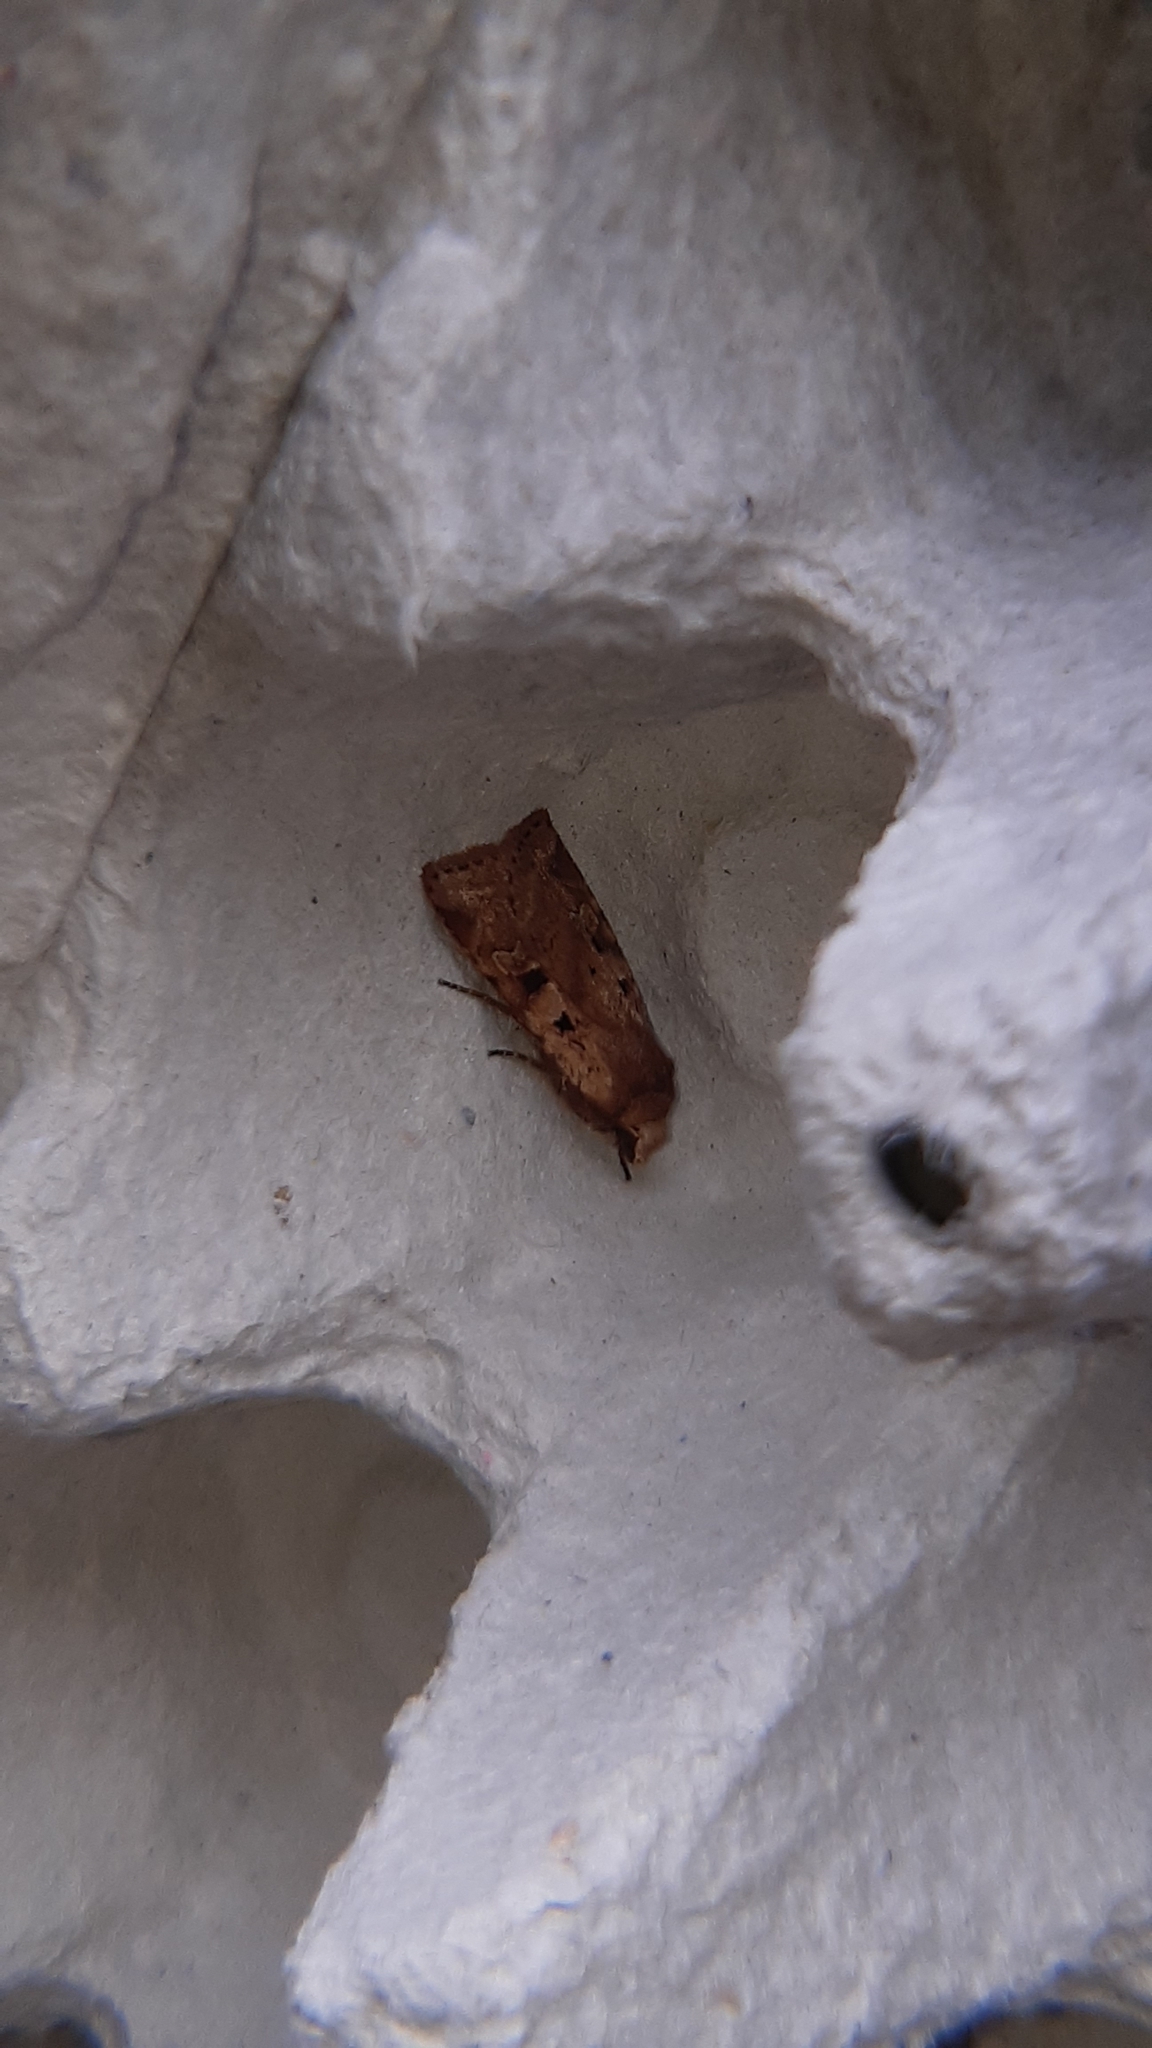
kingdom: Animalia
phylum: Arthropoda
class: Insecta
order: Lepidoptera
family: Noctuidae
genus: Diarsia
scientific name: Diarsia mendica
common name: Ingrailed clay
